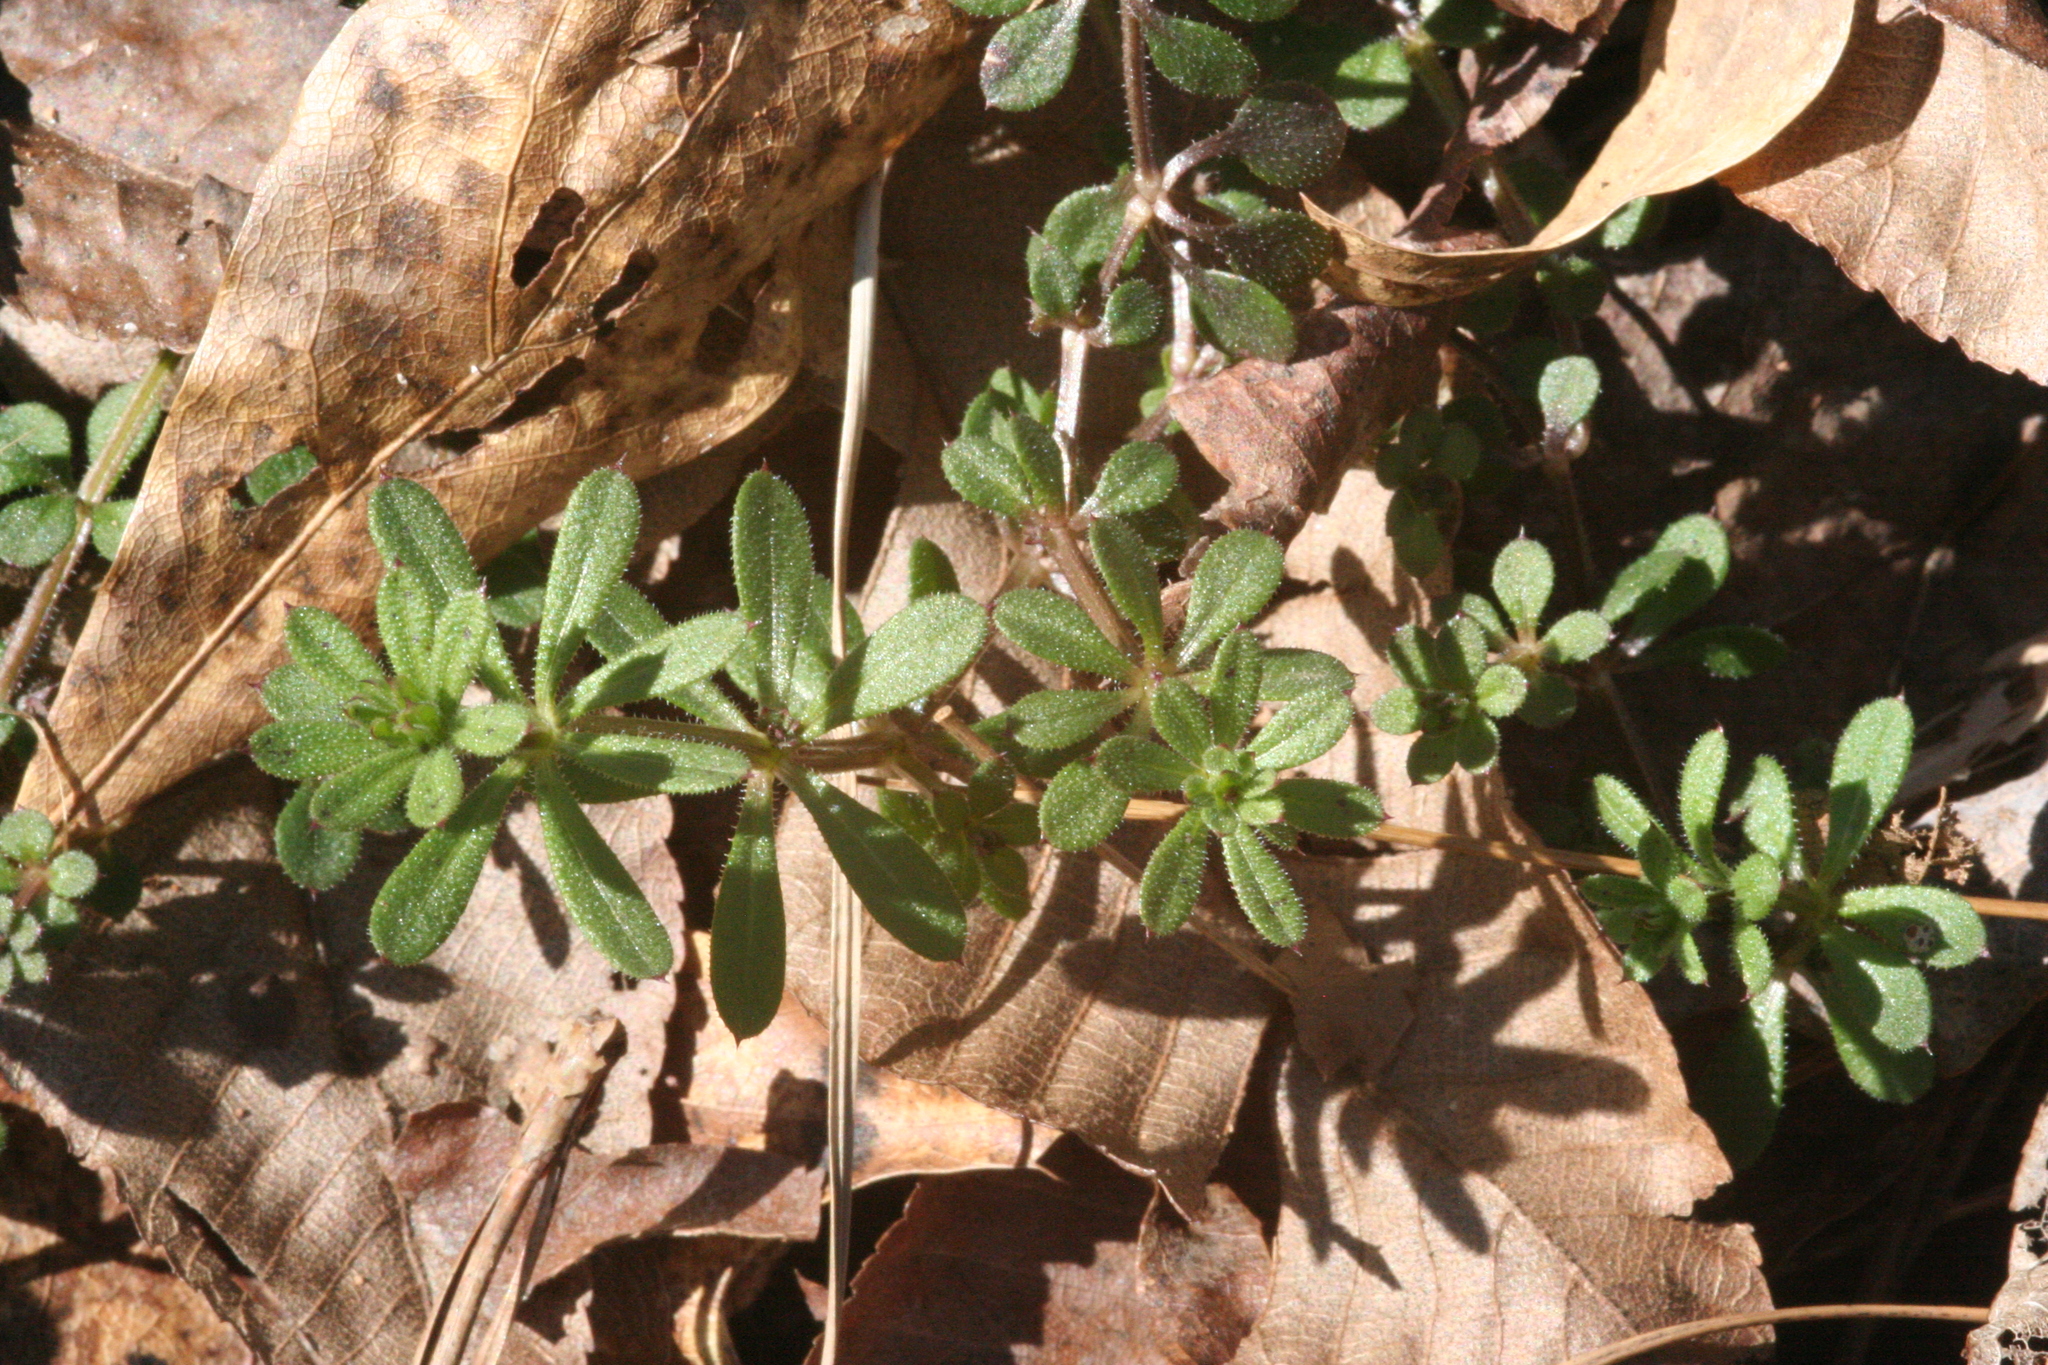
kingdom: Plantae
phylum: Tracheophyta
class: Magnoliopsida
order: Gentianales
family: Rubiaceae
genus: Galium
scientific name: Galium aparine
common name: Cleavers
